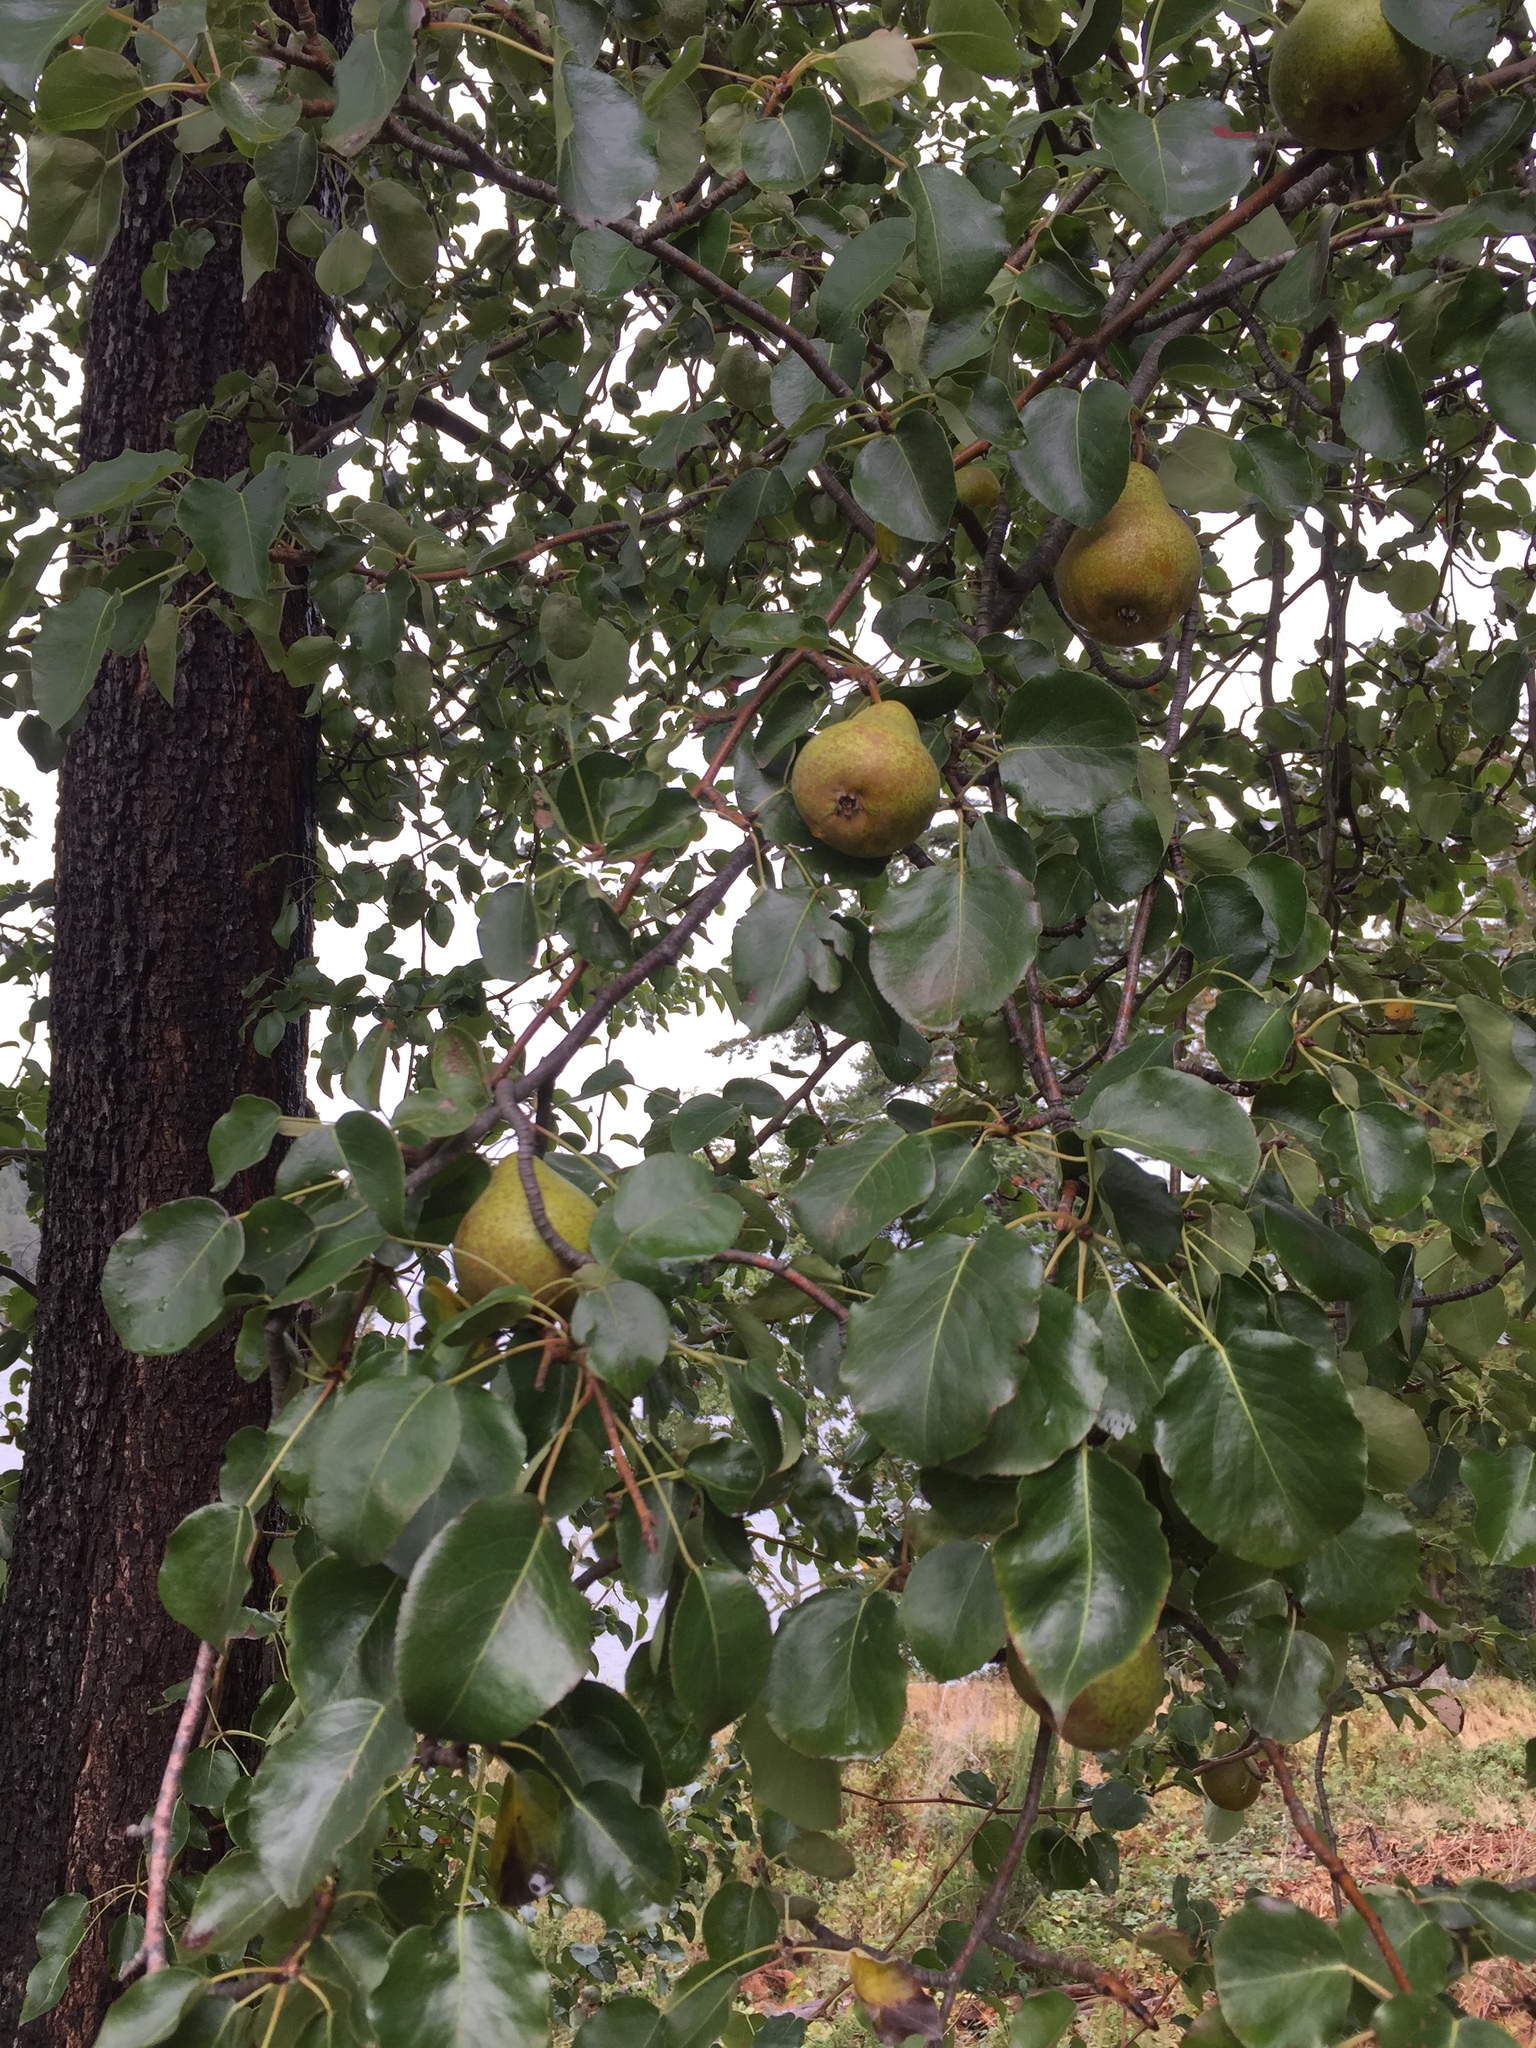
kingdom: Plantae
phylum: Tracheophyta
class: Magnoliopsida
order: Rosales
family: Rosaceae
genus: Pyrus
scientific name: Pyrus communis
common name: Pear
